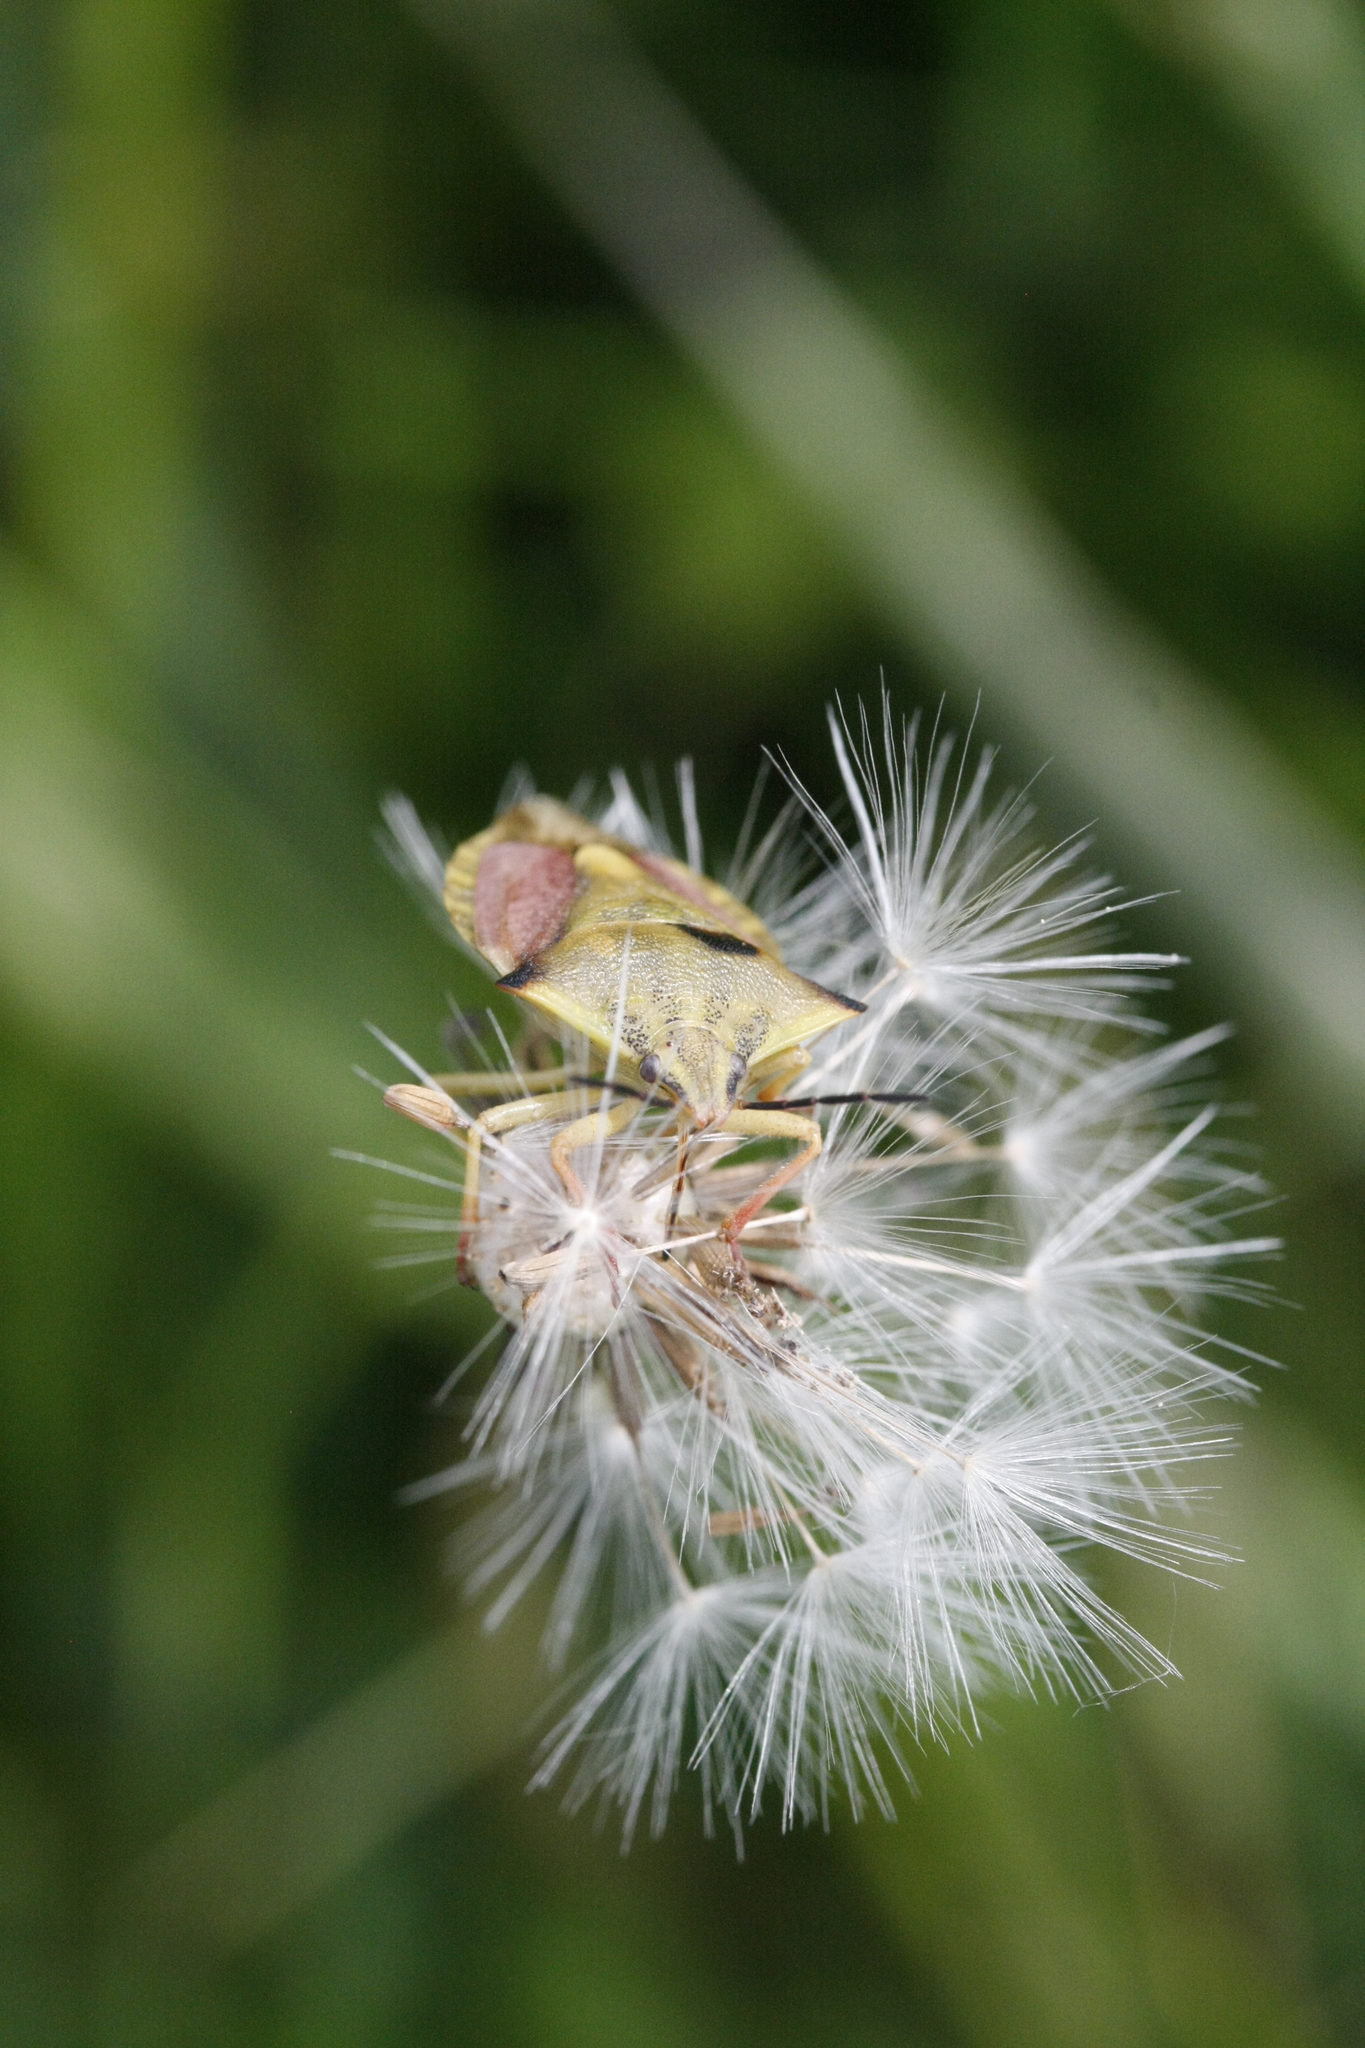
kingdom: Animalia
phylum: Arthropoda
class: Insecta
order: Hemiptera
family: Pentatomidae
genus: Carpocoris
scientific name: Carpocoris fuscispinus
